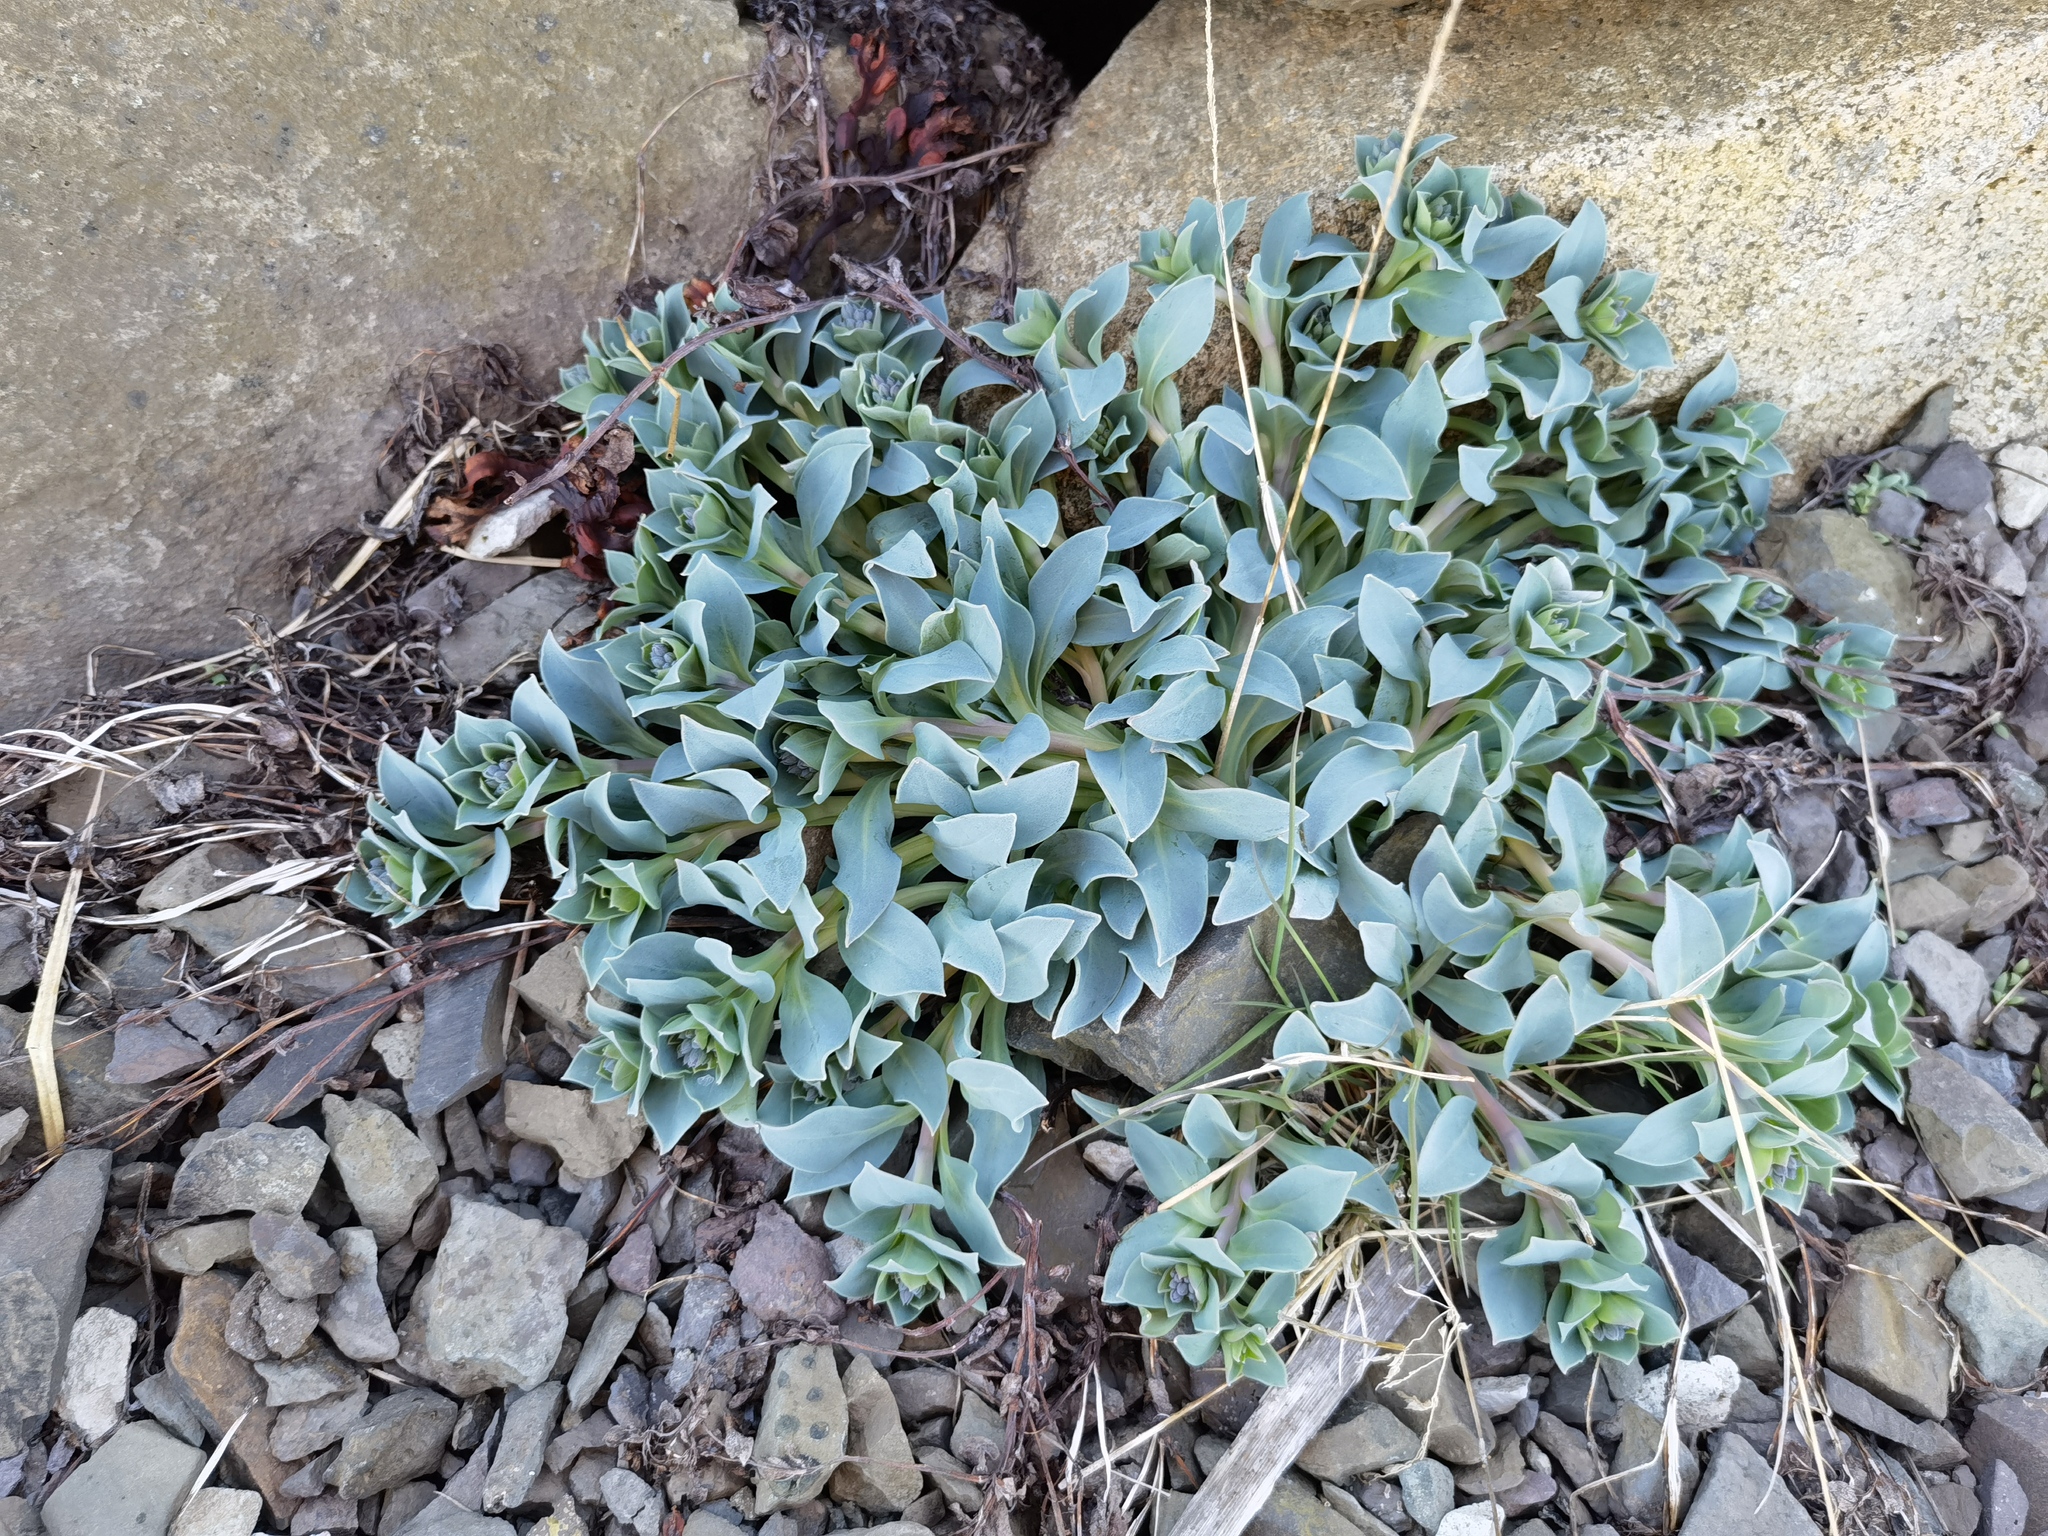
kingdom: Plantae
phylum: Tracheophyta
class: Magnoliopsida
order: Boraginales
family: Boraginaceae
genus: Mertensia
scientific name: Mertensia maritima
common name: Oysterplant
